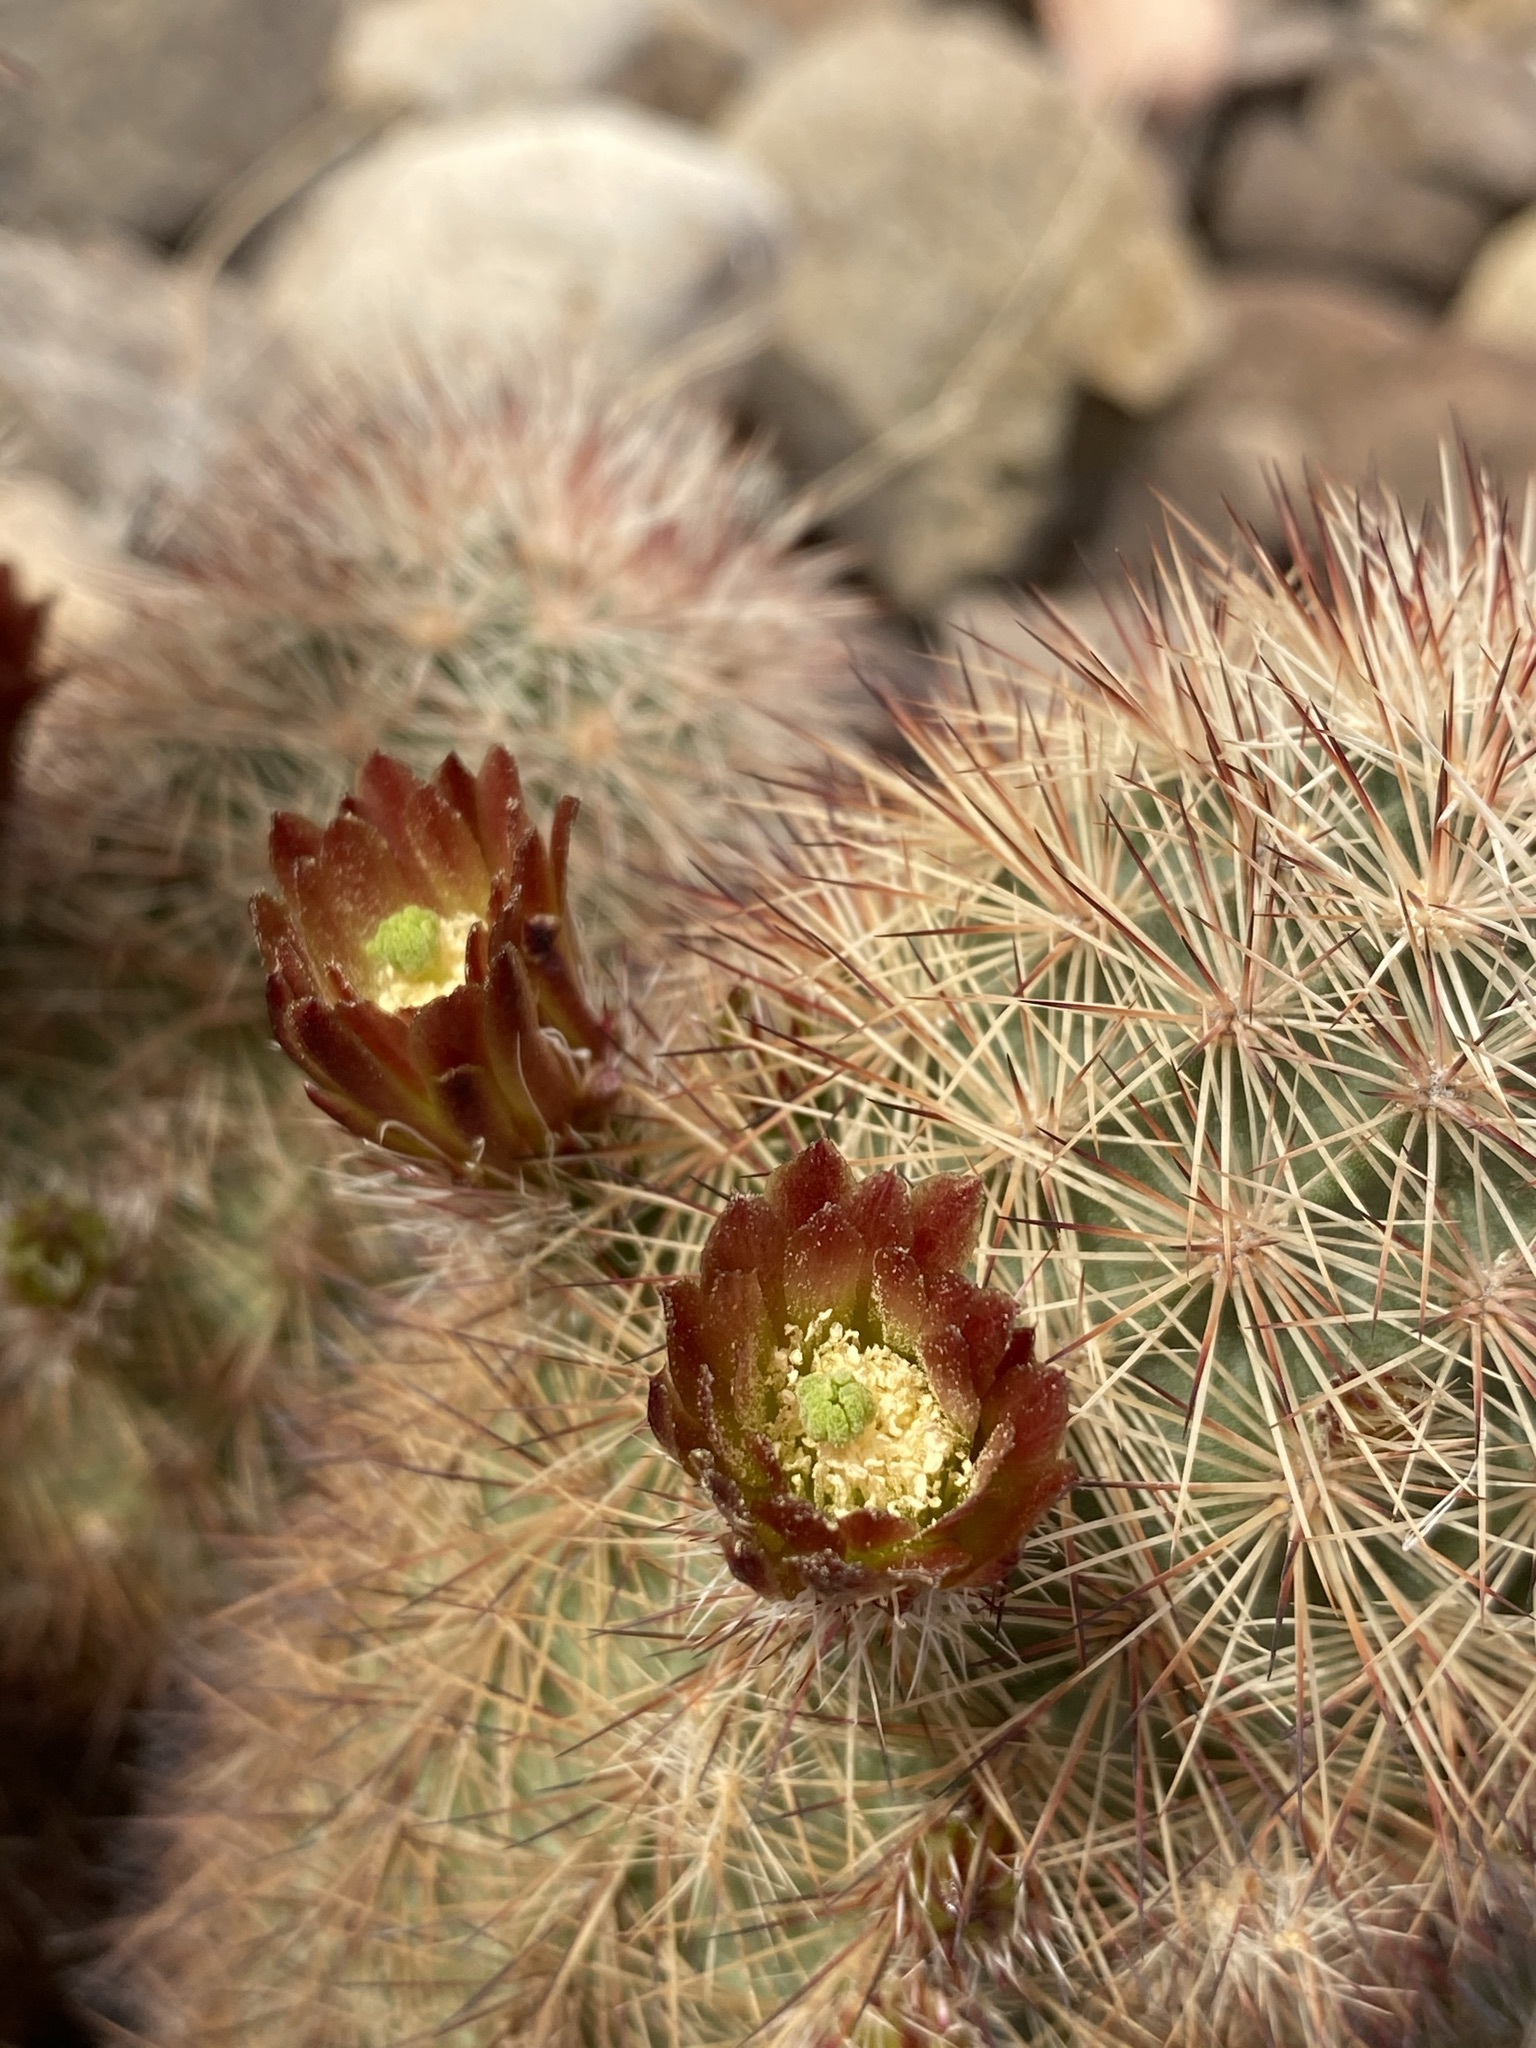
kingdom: Plantae
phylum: Tracheophyta
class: Magnoliopsida
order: Caryophyllales
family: Cactaceae
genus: Echinocereus
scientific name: Echinocereus russanthus
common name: Brownspine hedgehog cactus
